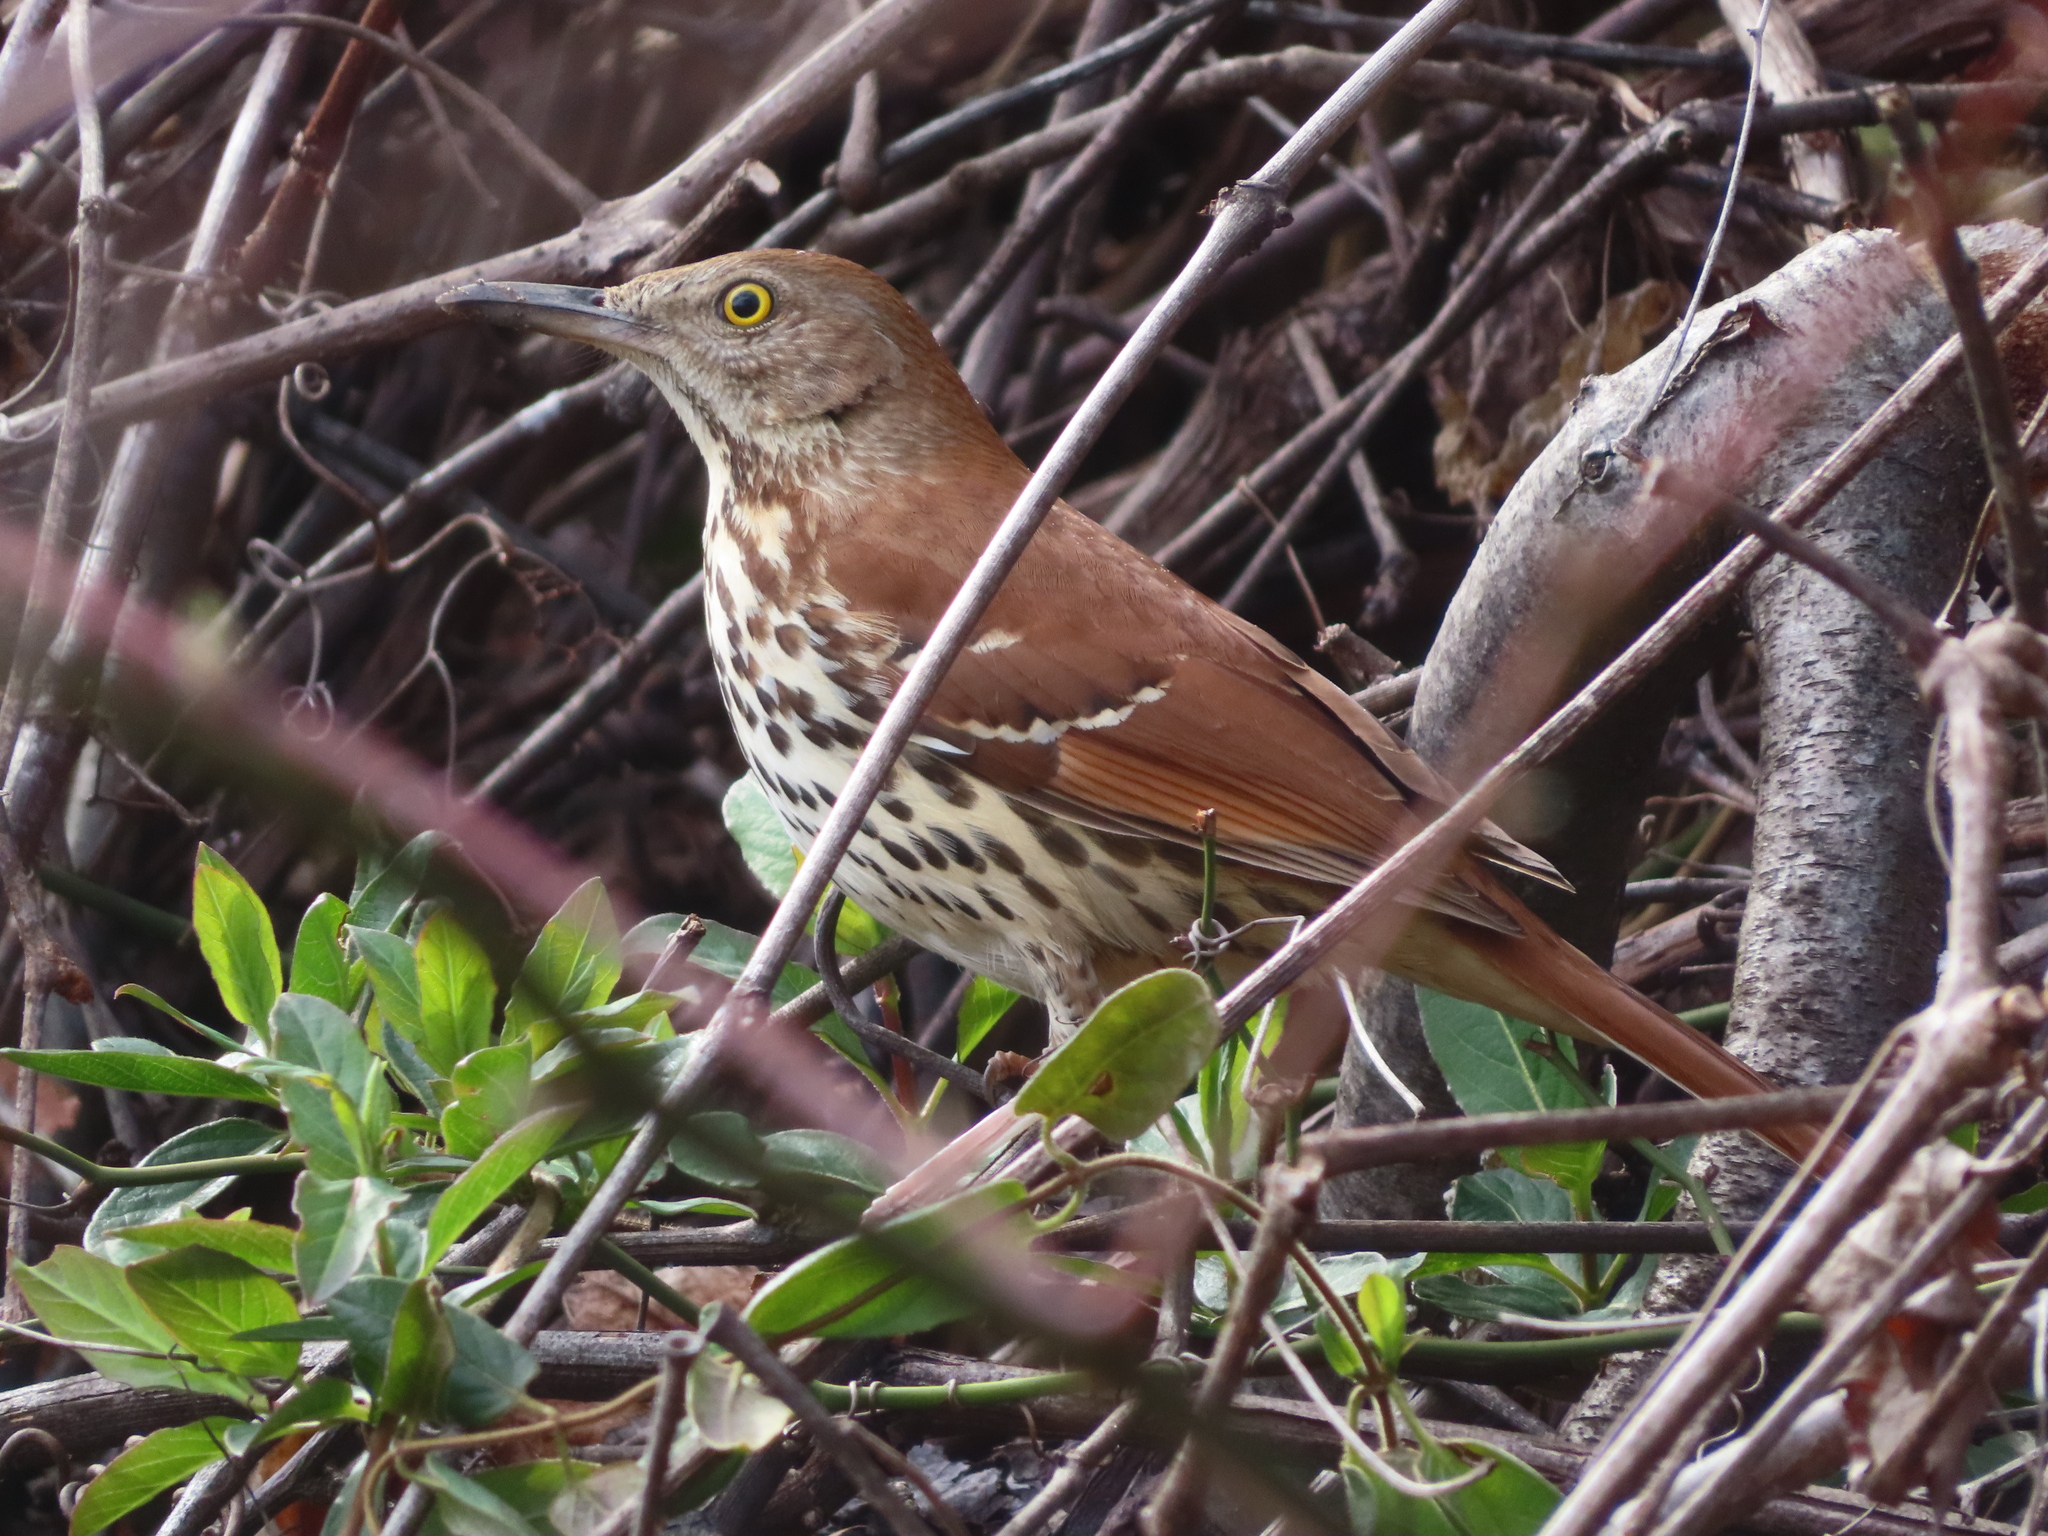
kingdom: Animalia
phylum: Chordata
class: Aves
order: Passeriformes
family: Mimidae
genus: Toxostoma
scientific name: Toxostoma rufum
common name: Brown thrasher
